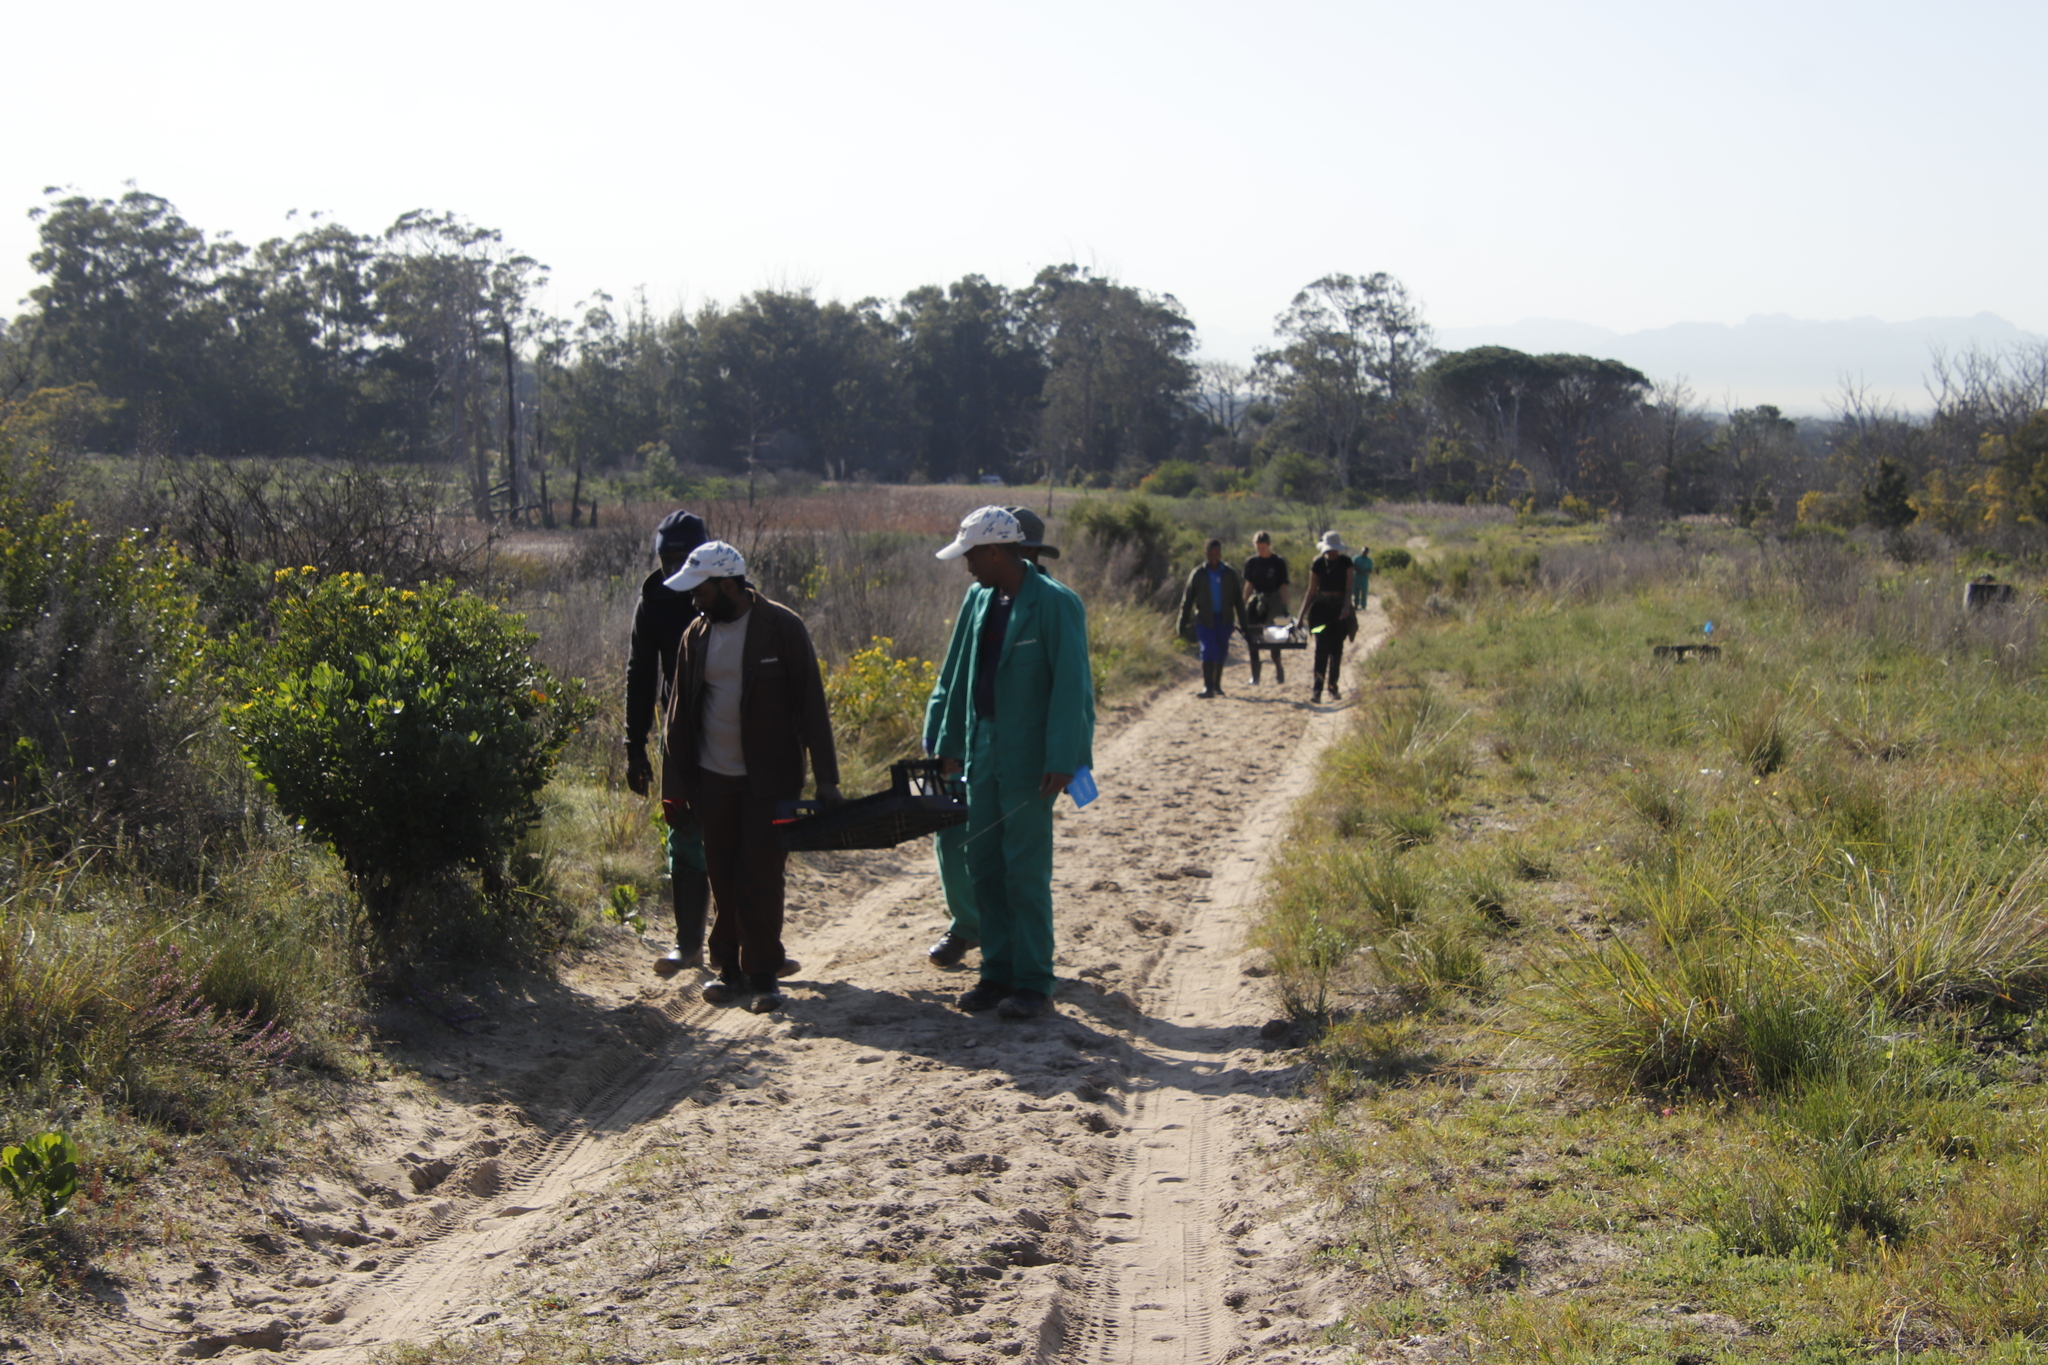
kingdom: Plantae
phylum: Tracheophyta
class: Magnoliopsida
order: Asterales
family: Asteraceae
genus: Osteospermum
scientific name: Osteospermum moniliferum
